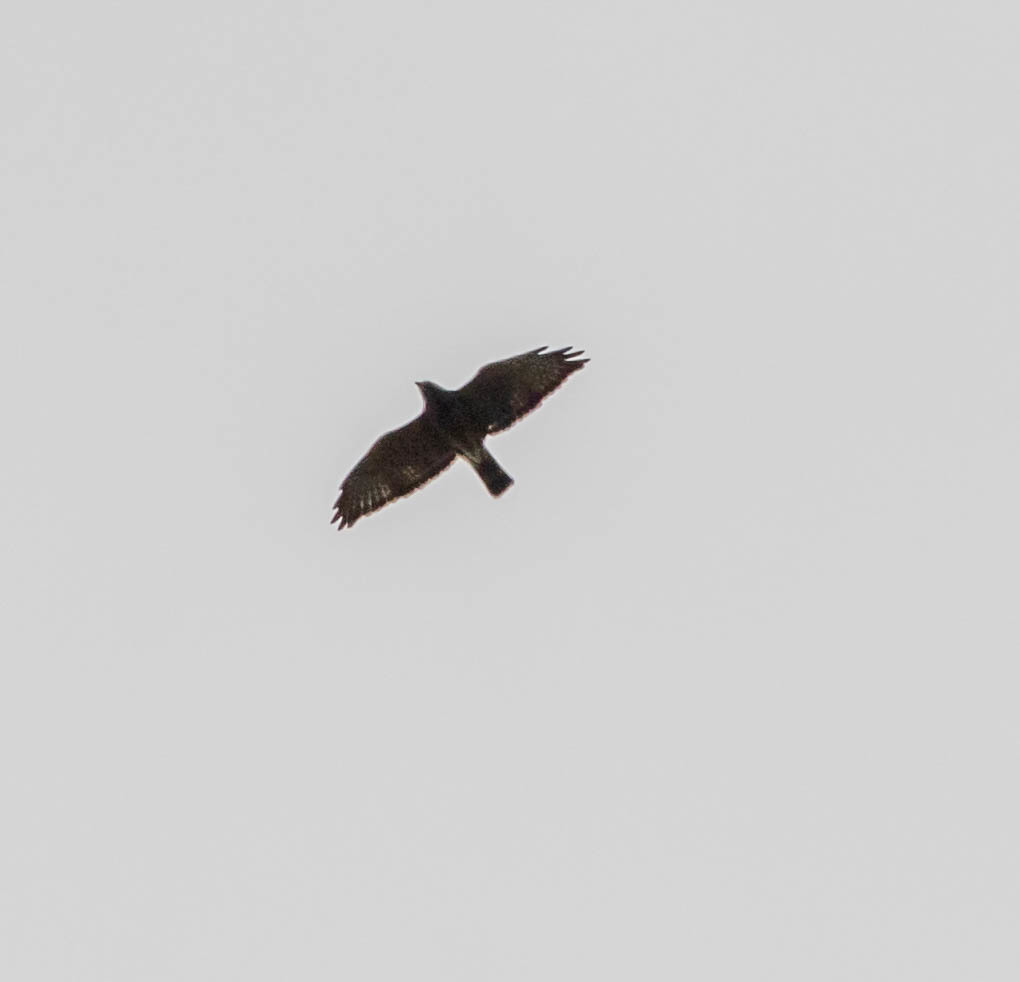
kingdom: Animalia
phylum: Chordata
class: Aves
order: Accipitriformes
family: Accipitridae
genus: Buteo
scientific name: Buteo platypterus
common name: Broad-winged hawk
